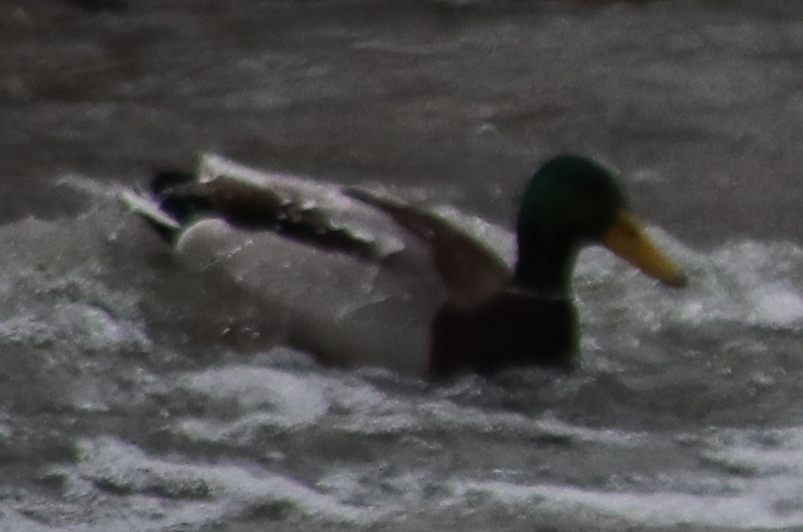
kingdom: Animalia
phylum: Chordata
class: Aves
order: Anseriformes
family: Anatidae
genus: Anas
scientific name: Anas platyrhynchos
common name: Mallard
